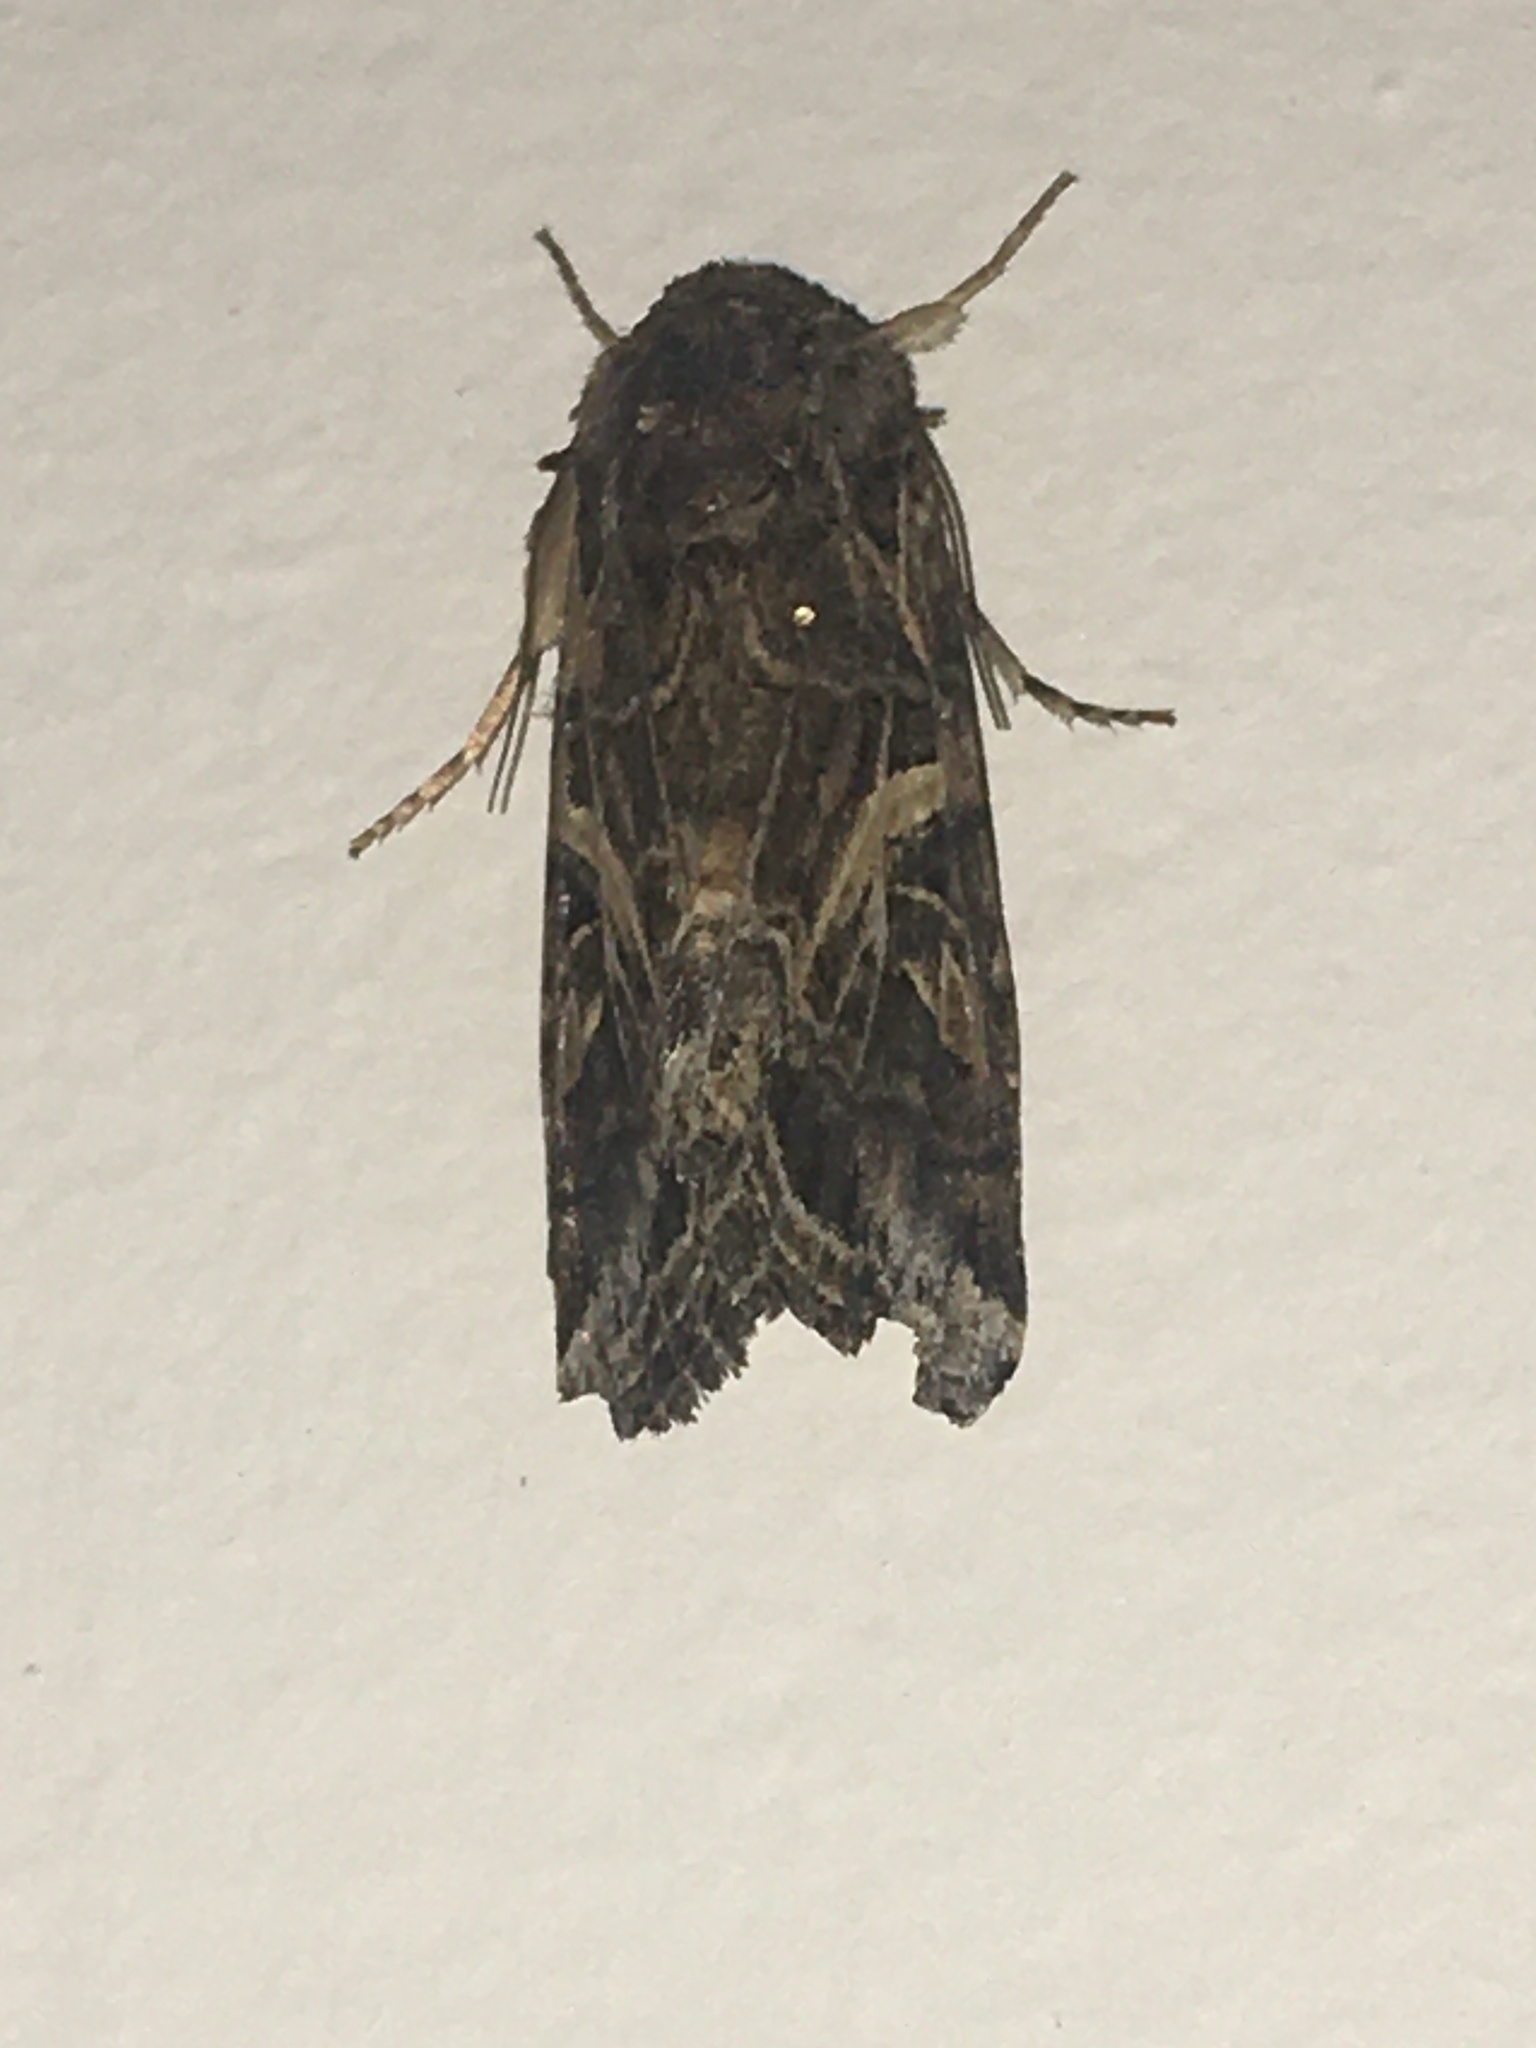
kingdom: Animalia
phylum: Arthropoda
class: Insecta
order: Lepidoptera
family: Noctuidae
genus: Spodoptera
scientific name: Spodoptera ornithogalli
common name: Yellow-striped armyworm
